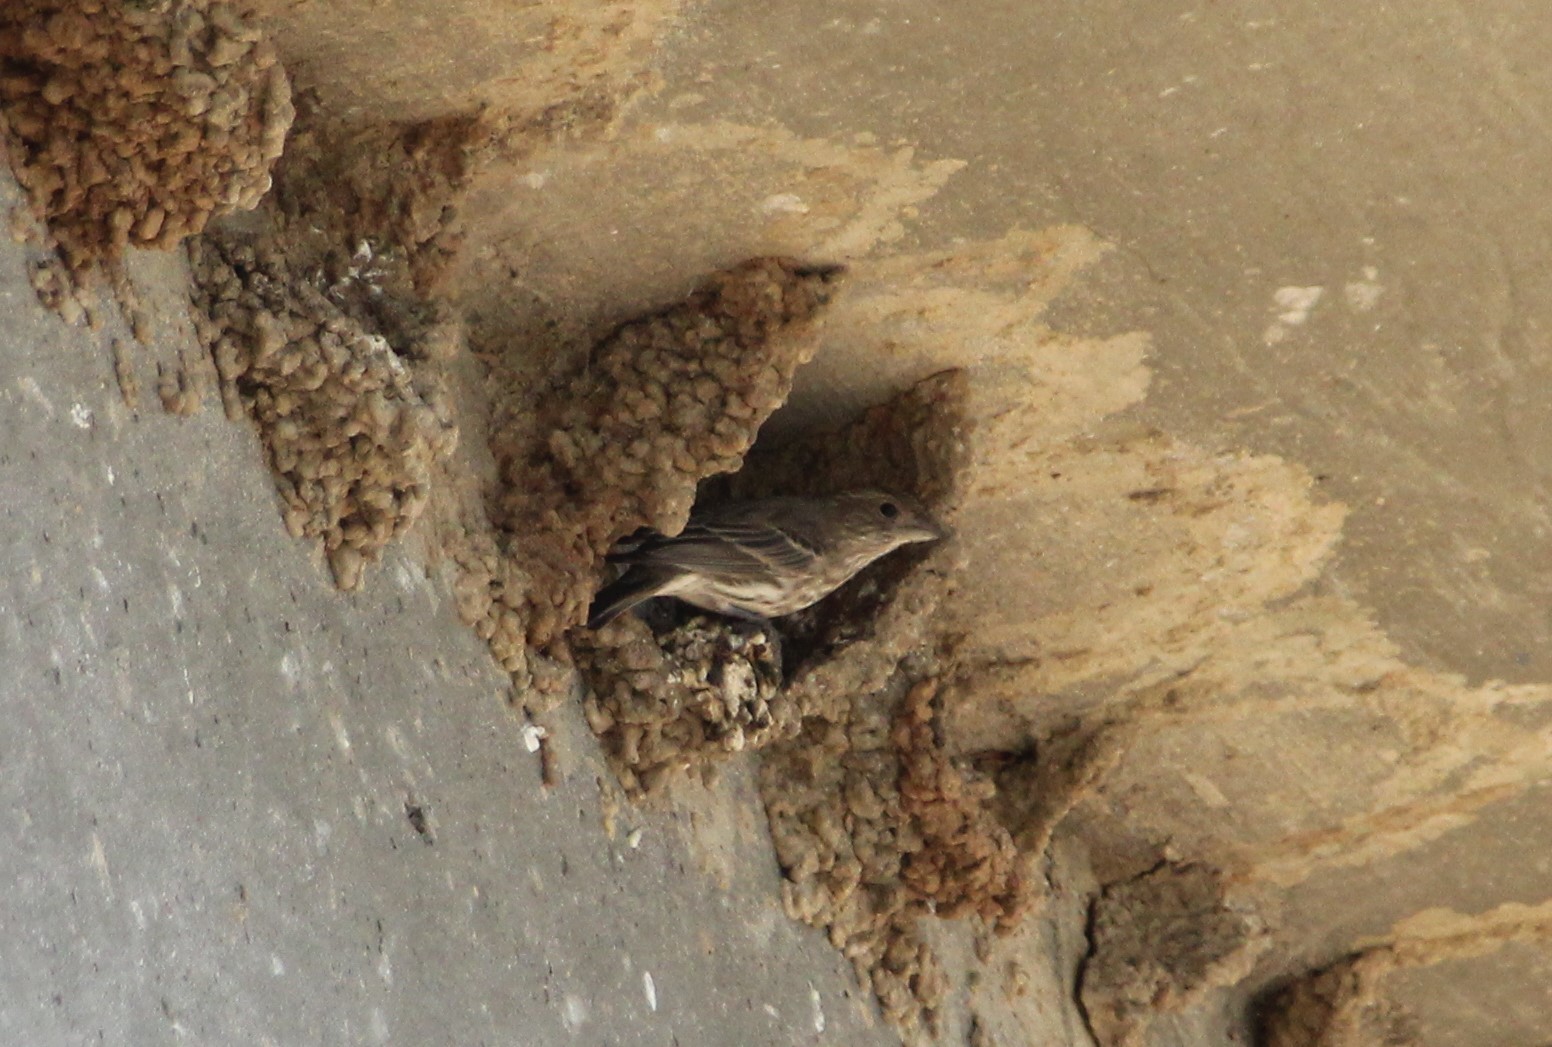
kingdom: Animalia
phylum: Chordata
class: Aves
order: Passeriformes
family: Fringillidae
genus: Haemorhous
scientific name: Haemorhous mexicanus
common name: House finch
